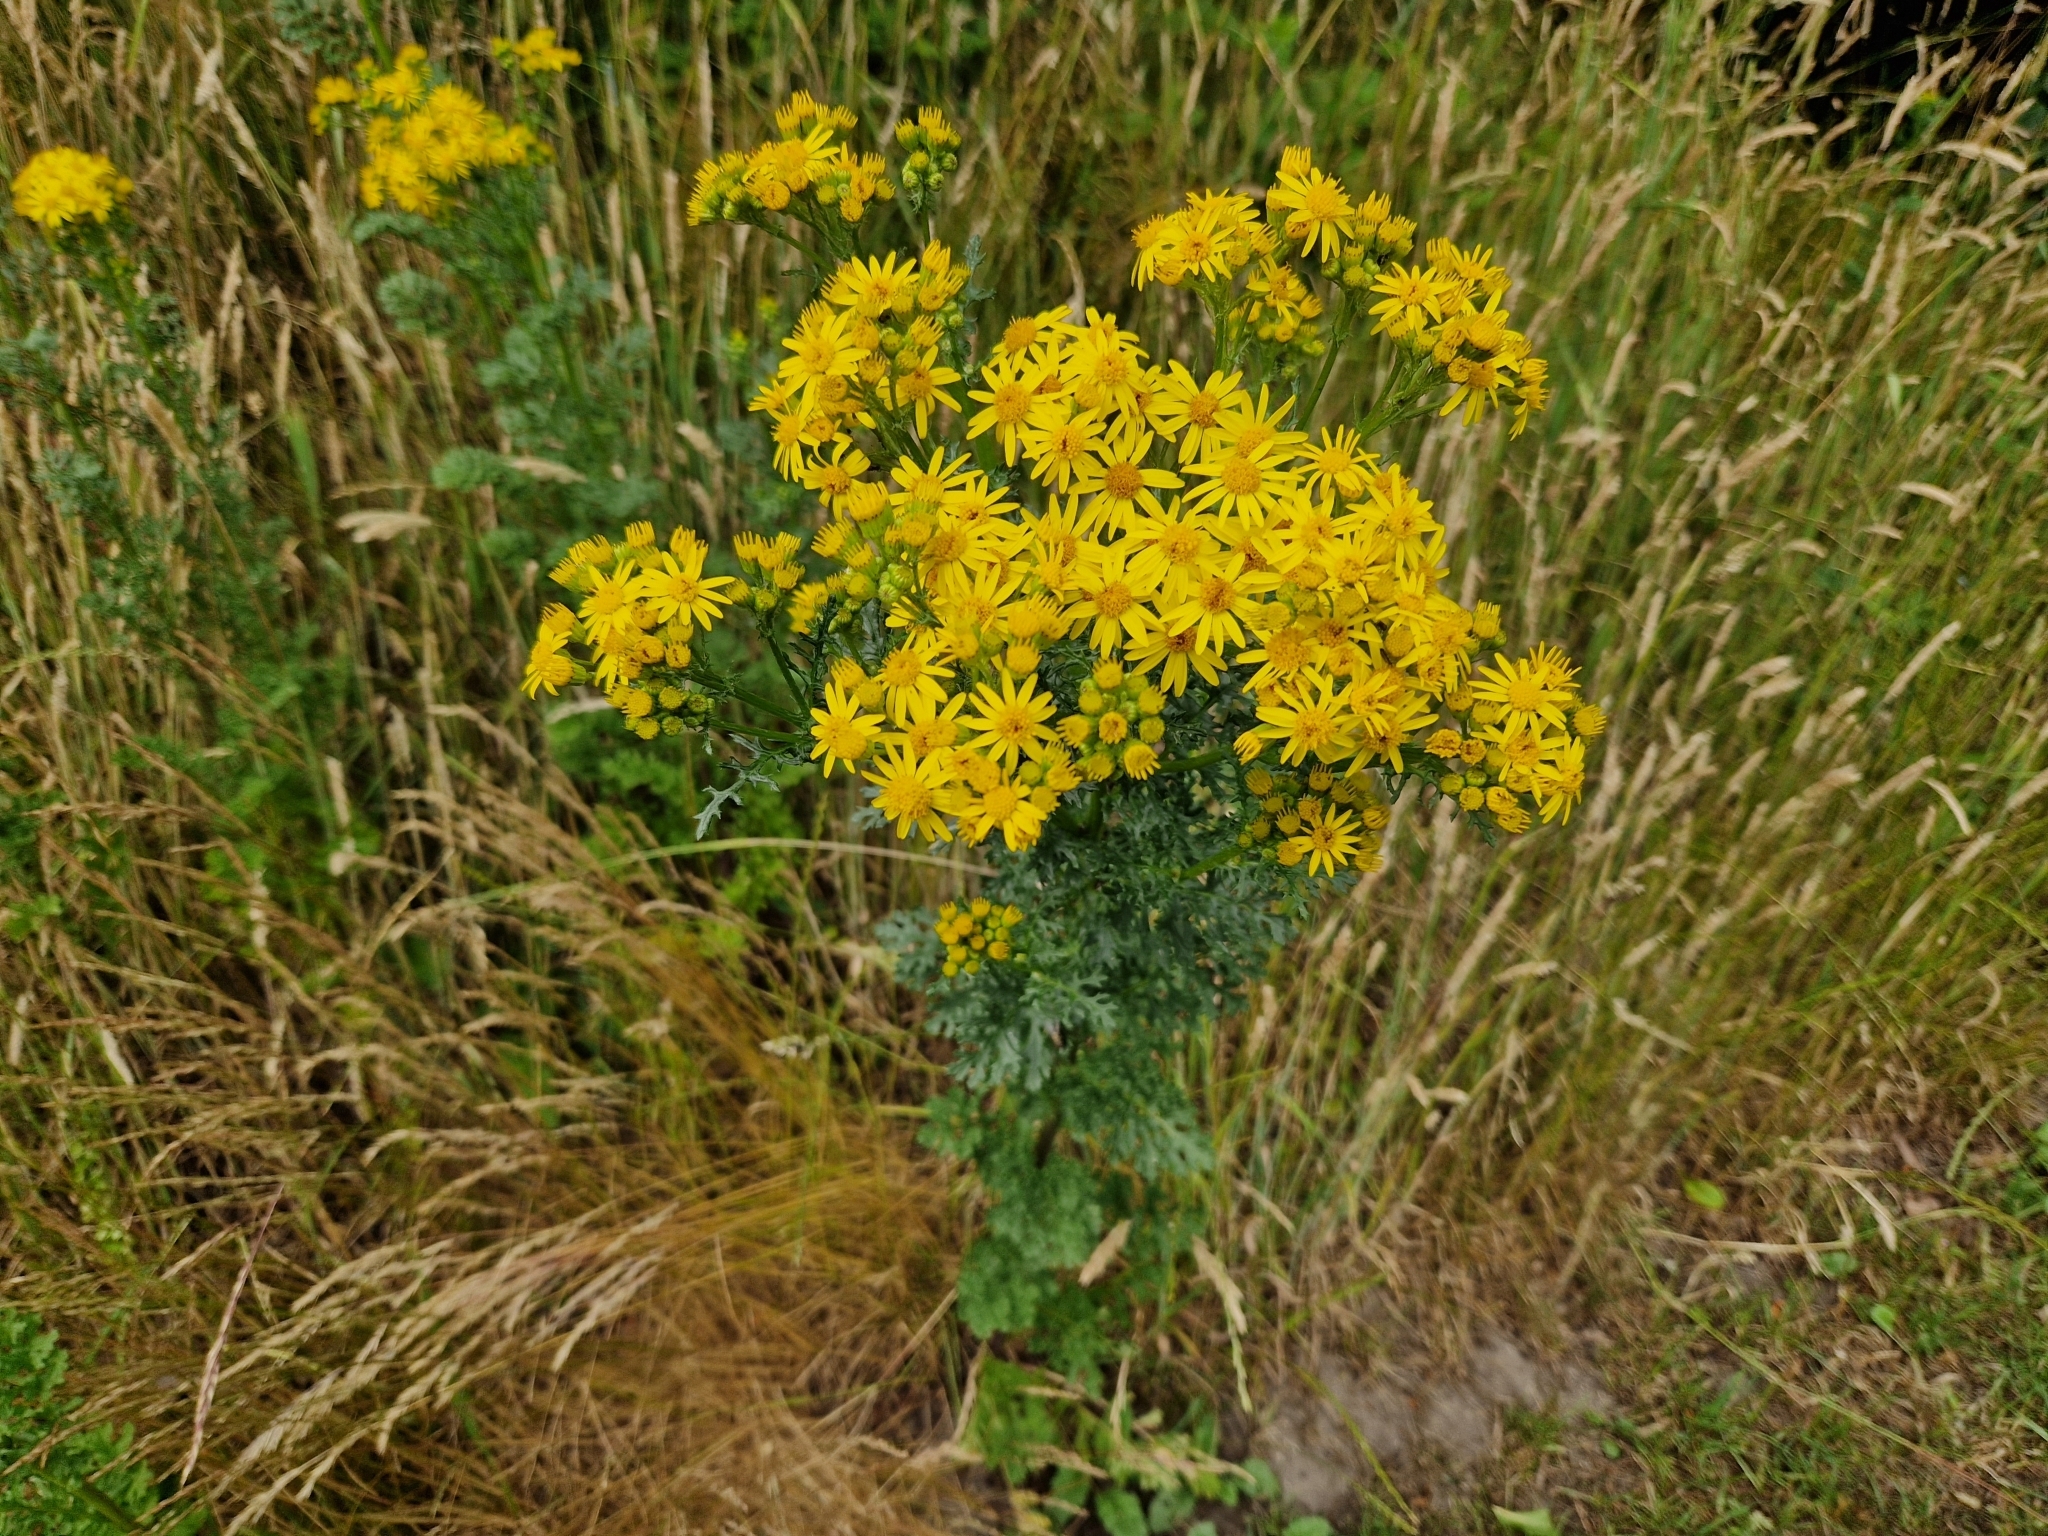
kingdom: Plantae
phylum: Tracheophyta
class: Magnoliopsida
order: Asterales
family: Asteraceae
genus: Jacobaea
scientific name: Jacobaea vulgaris
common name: Stinking willie
